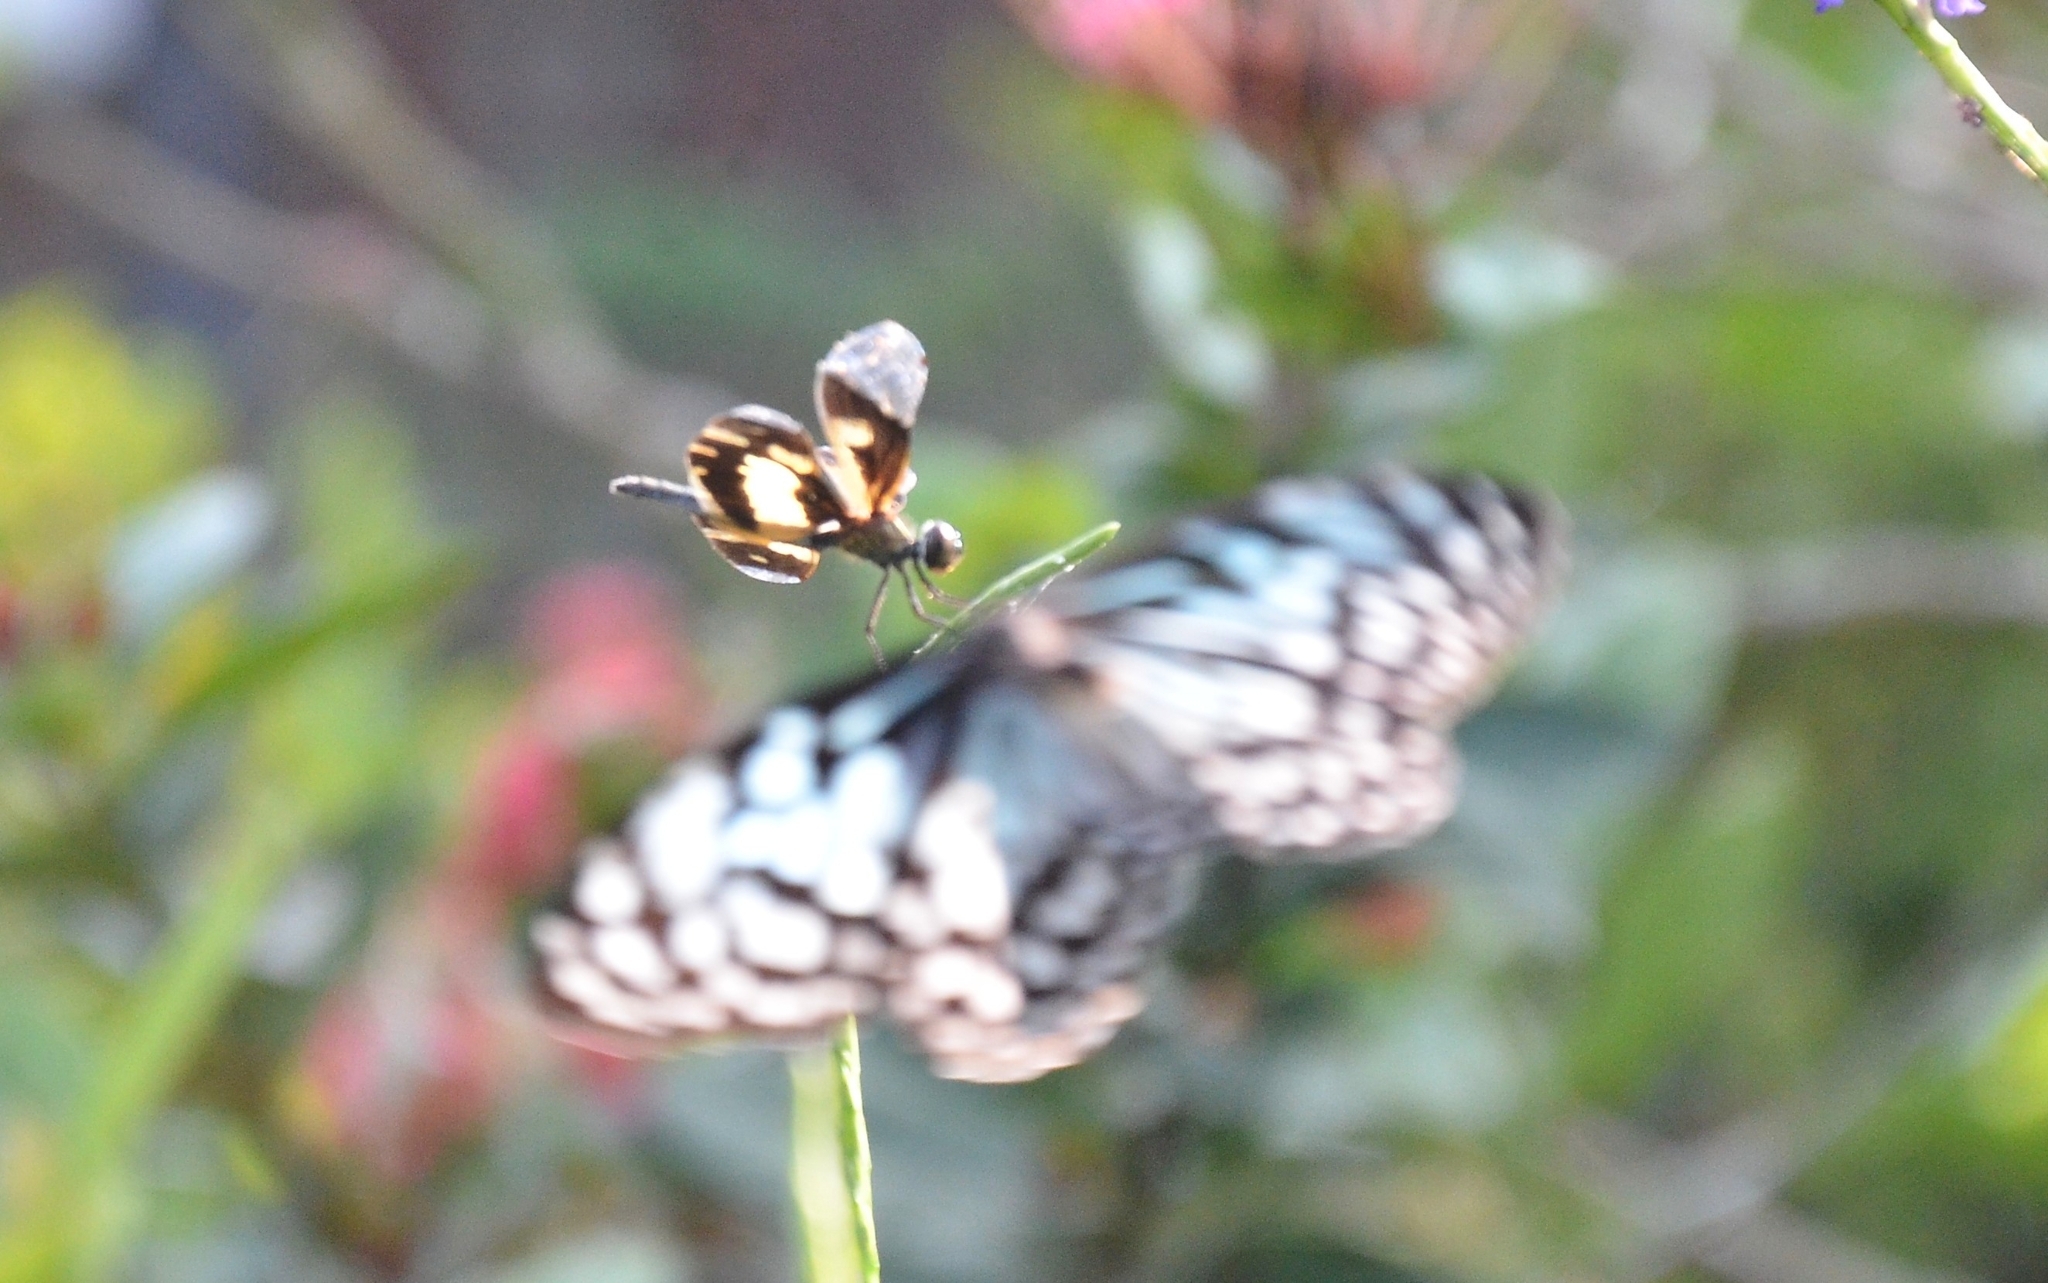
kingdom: Animalia
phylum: Arthropoda
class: Insecta
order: Odonata
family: Libellulidae
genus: Rhyothemis
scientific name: Rhyothemis variegata
